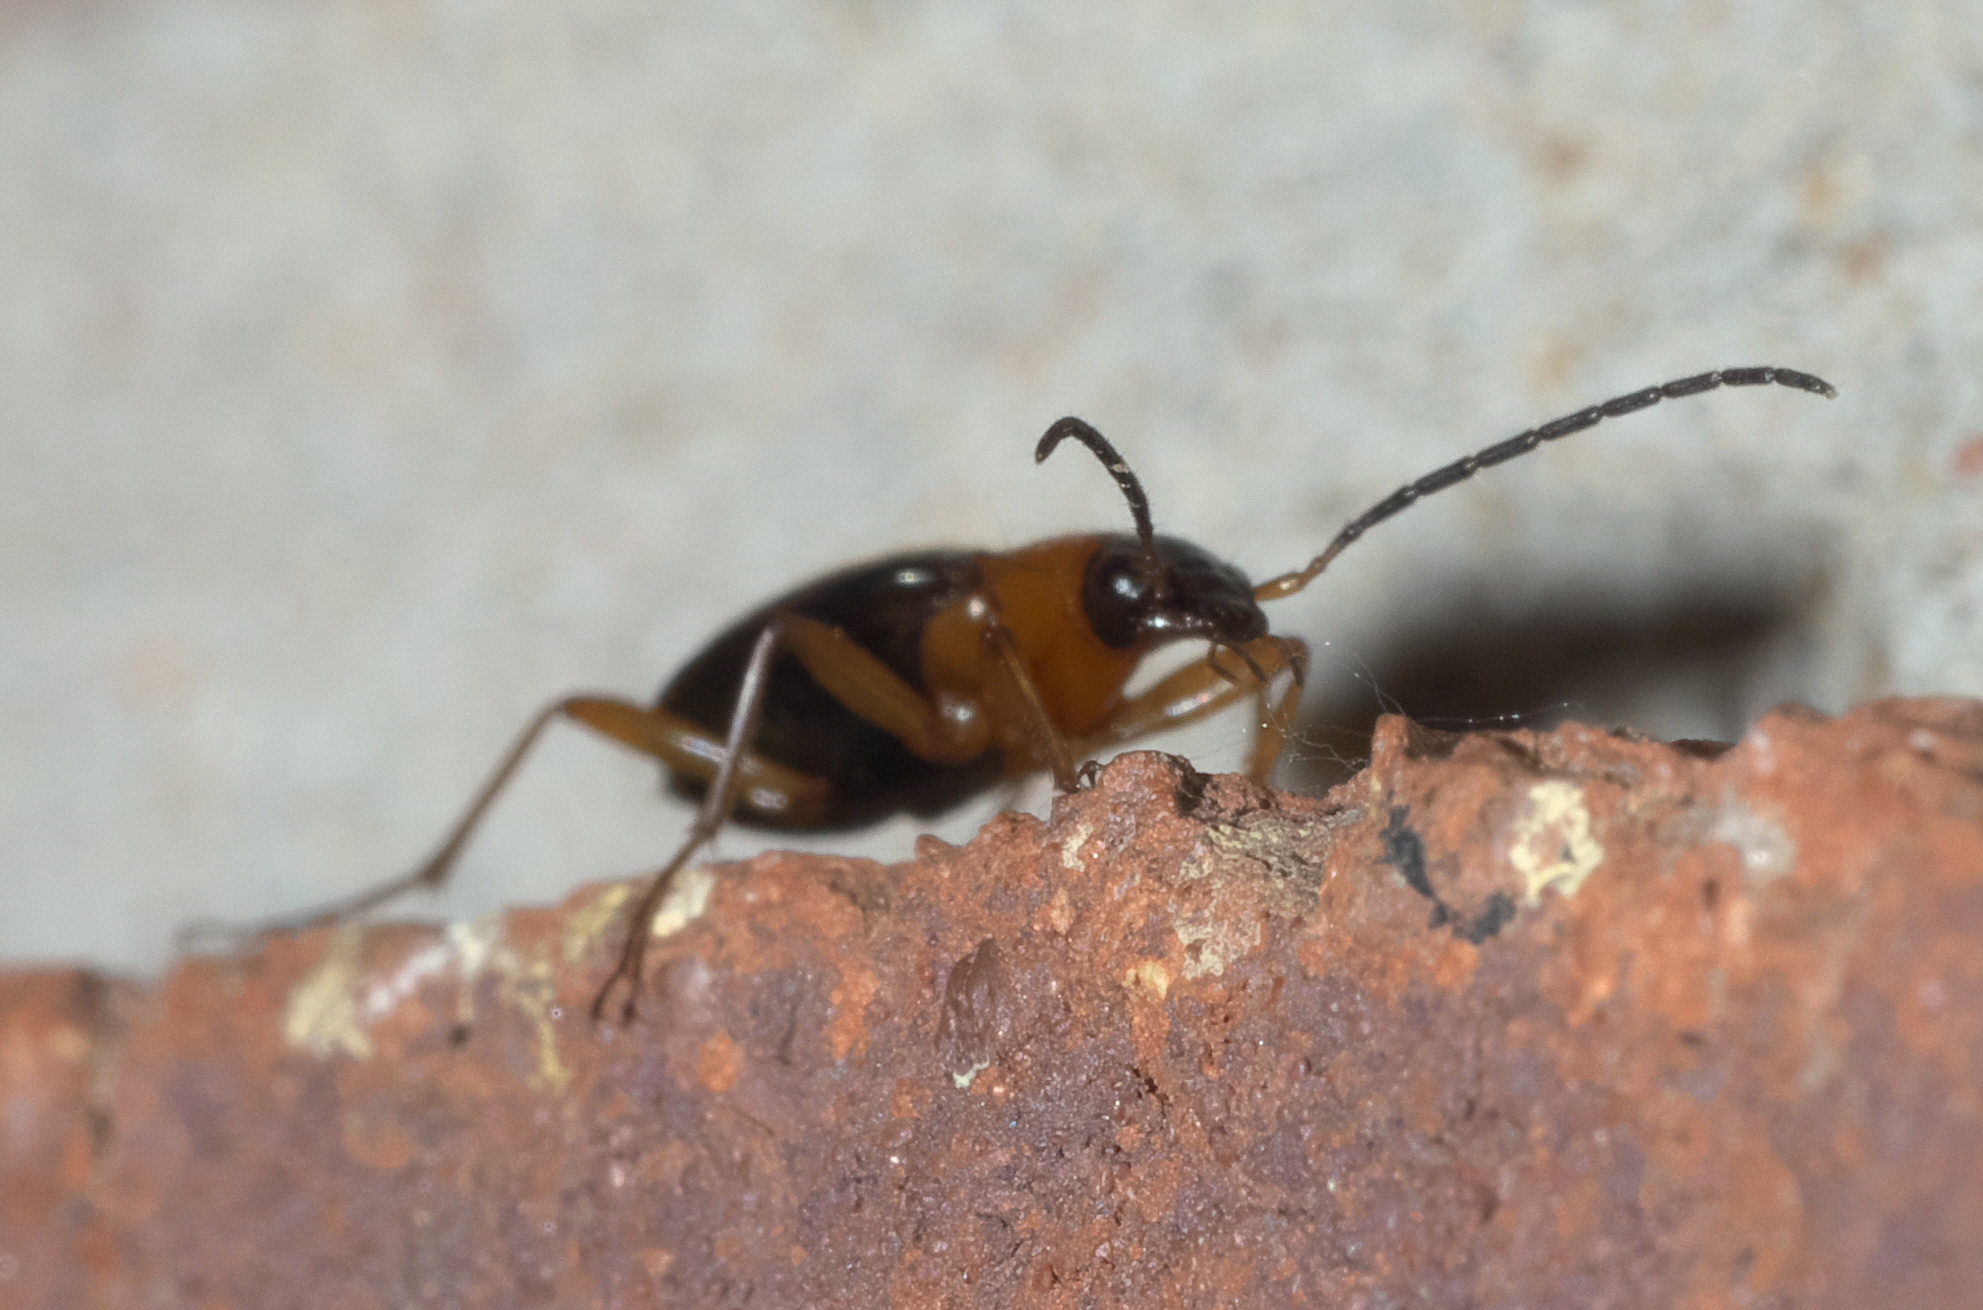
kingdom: Animalia
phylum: Arthropoda
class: Insecta
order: Coleoptera
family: Carabidae
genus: Agonum
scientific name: Agonum decorum
